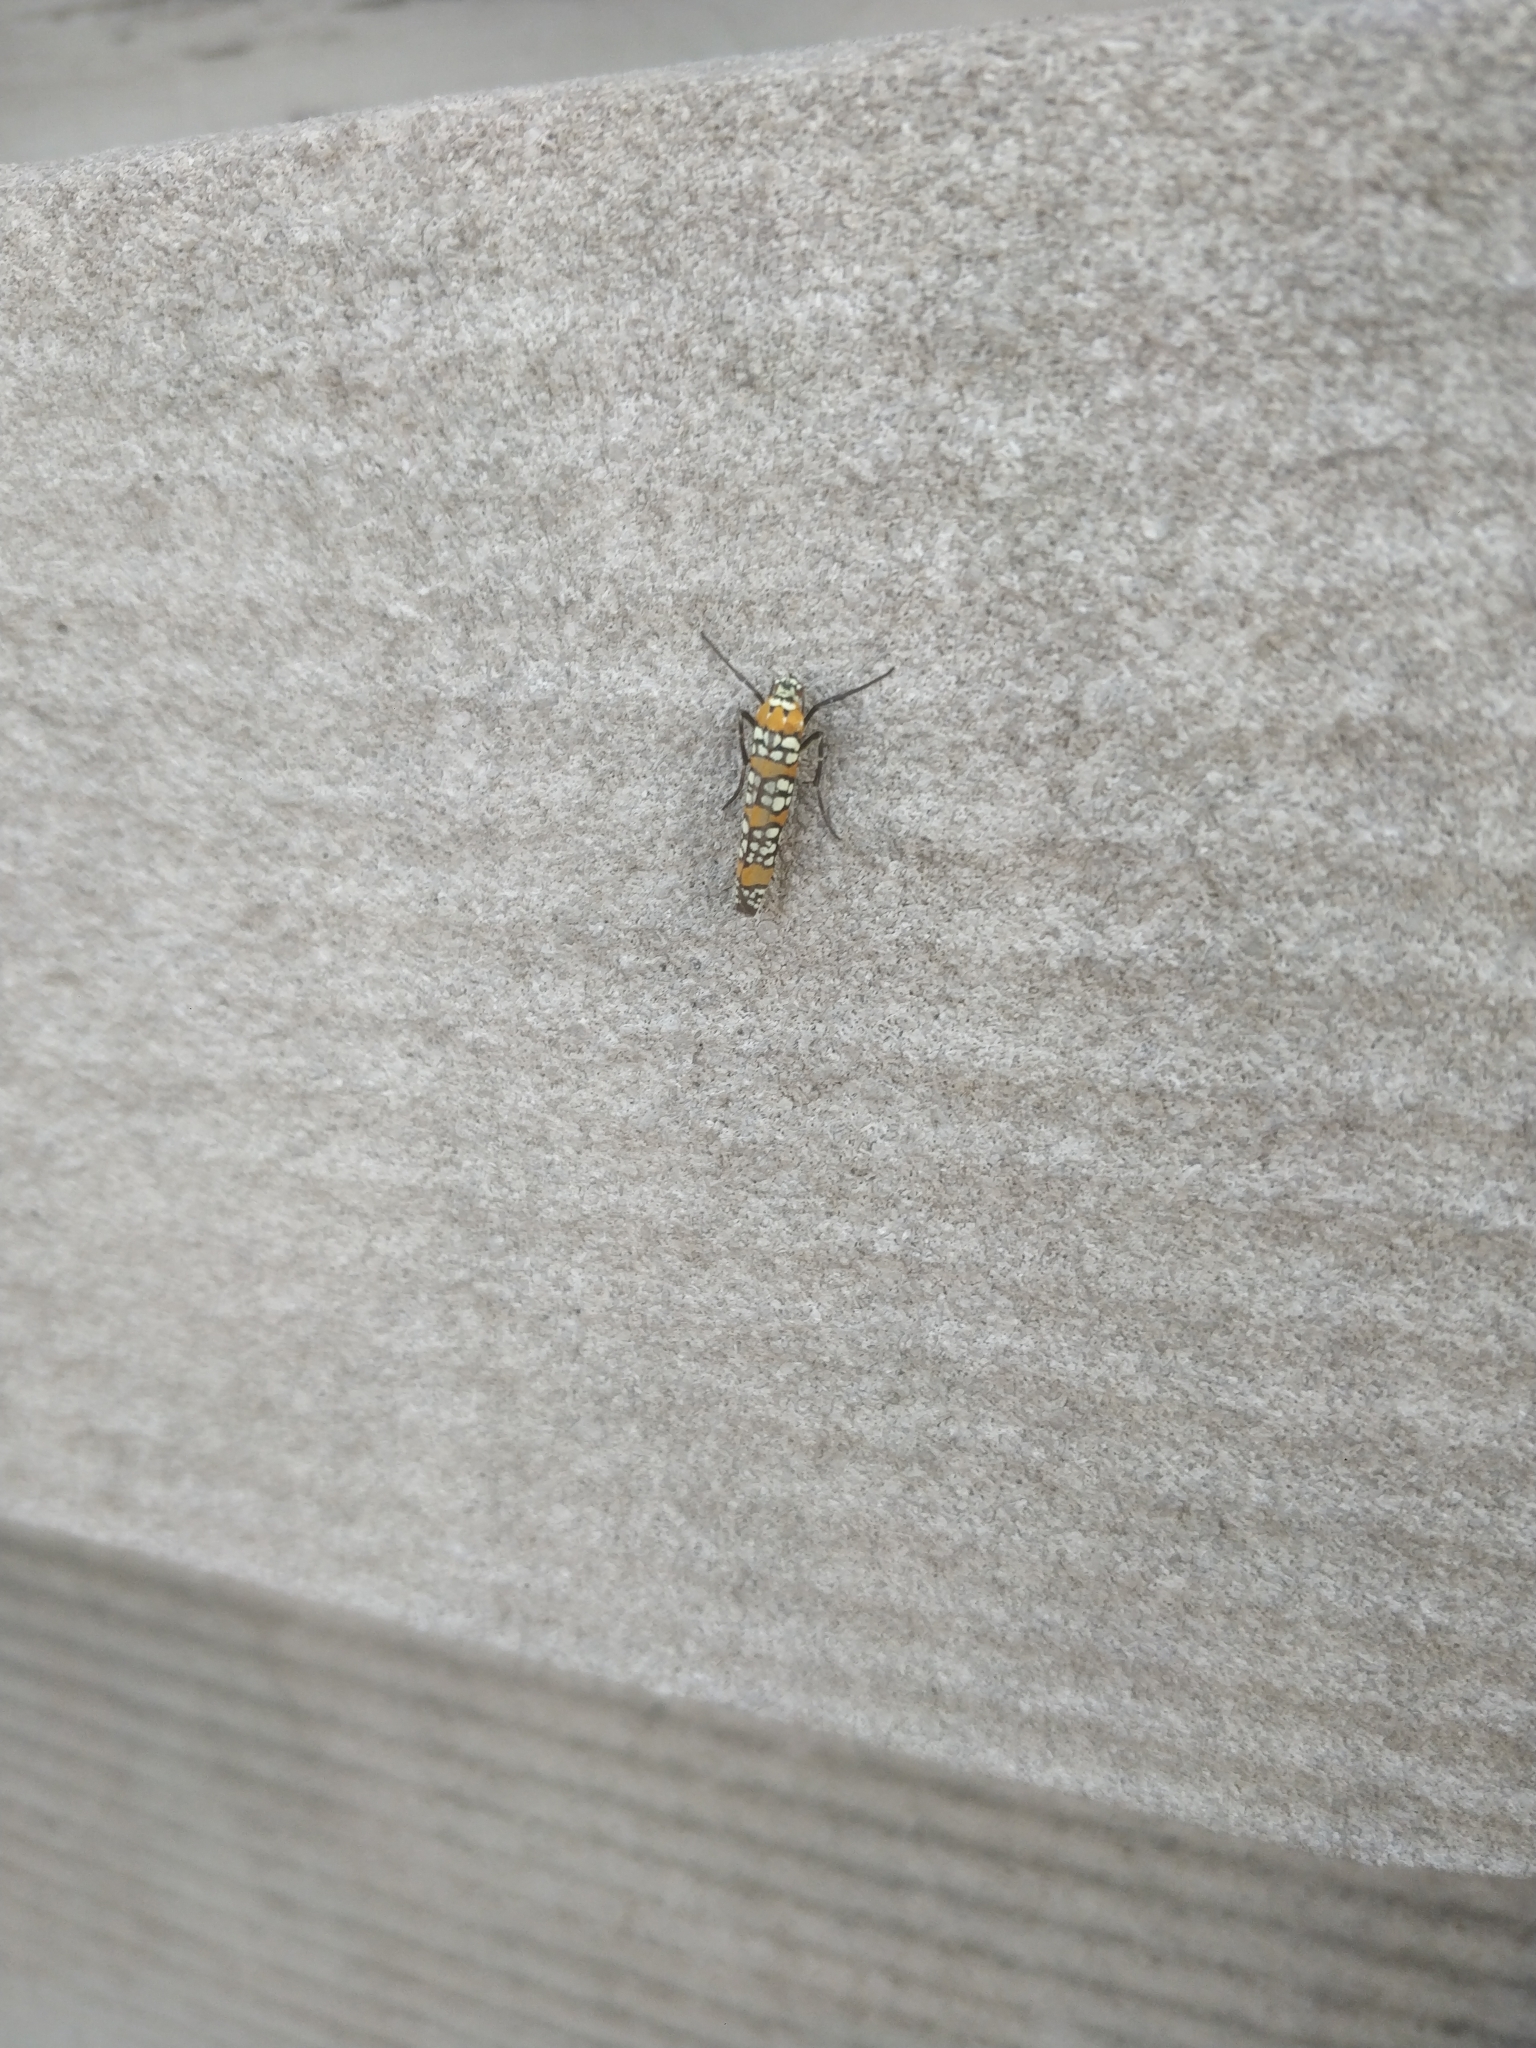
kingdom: Animalia
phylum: Arthropoda
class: Insecta
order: Lepidoptera
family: Attevidae
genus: Atteva
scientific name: Atteva punctella
